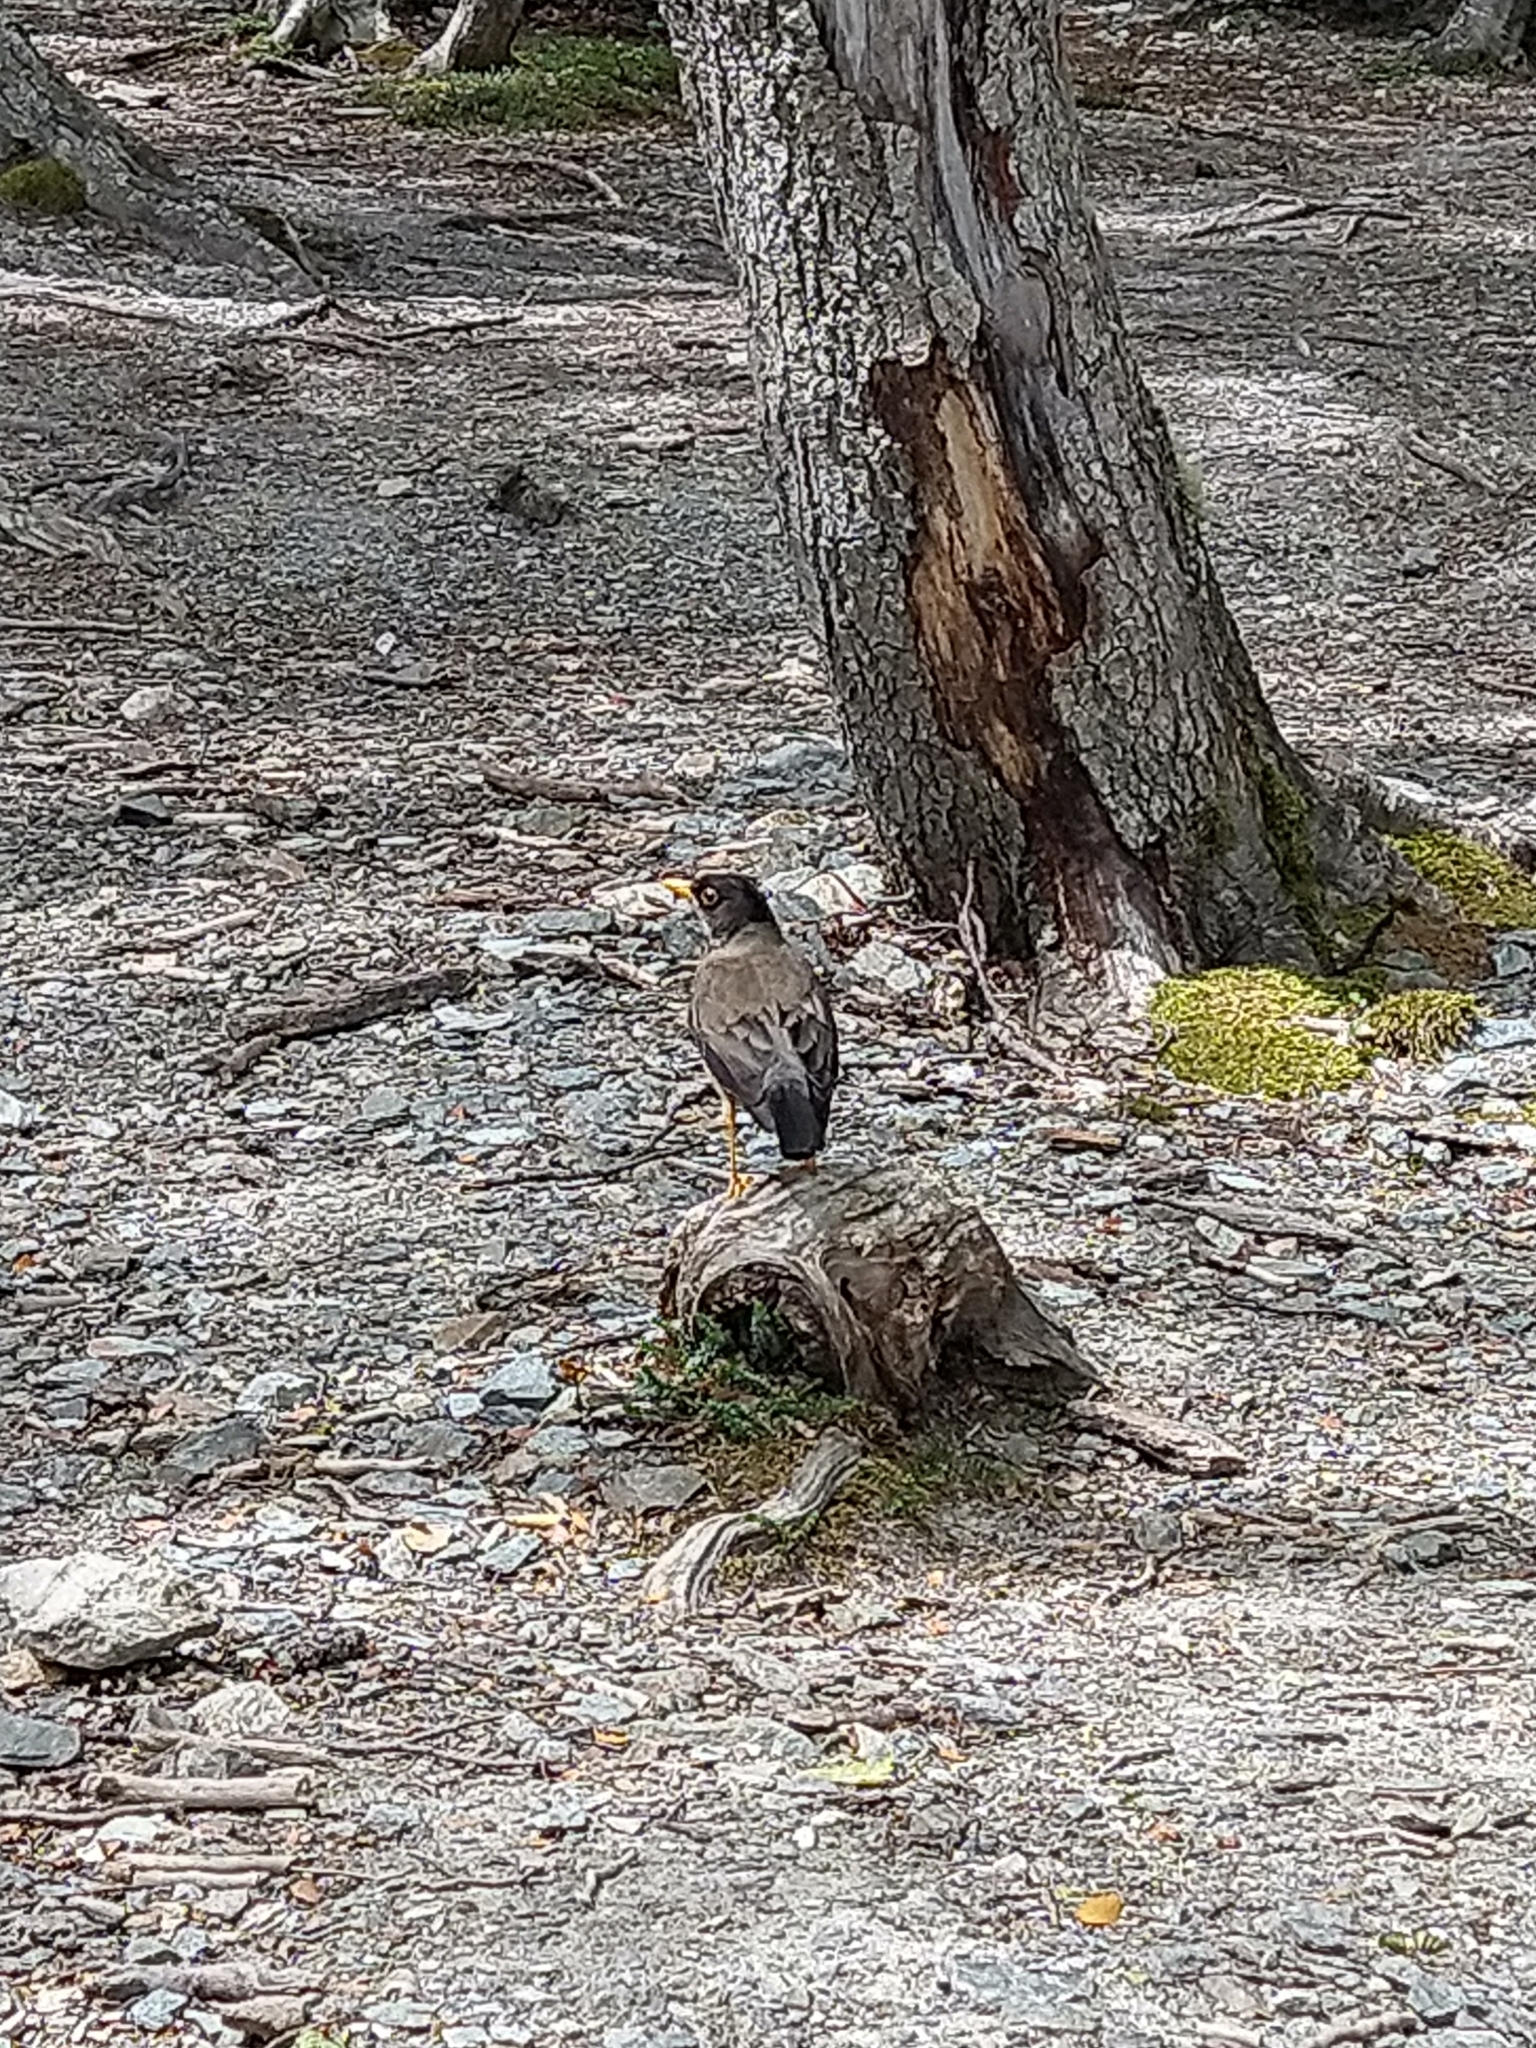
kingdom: Animalia
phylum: Chordata
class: Aves
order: Passeriformes
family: Turdidae
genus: Turdus
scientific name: Turdus falcklandii
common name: Austral thrush
